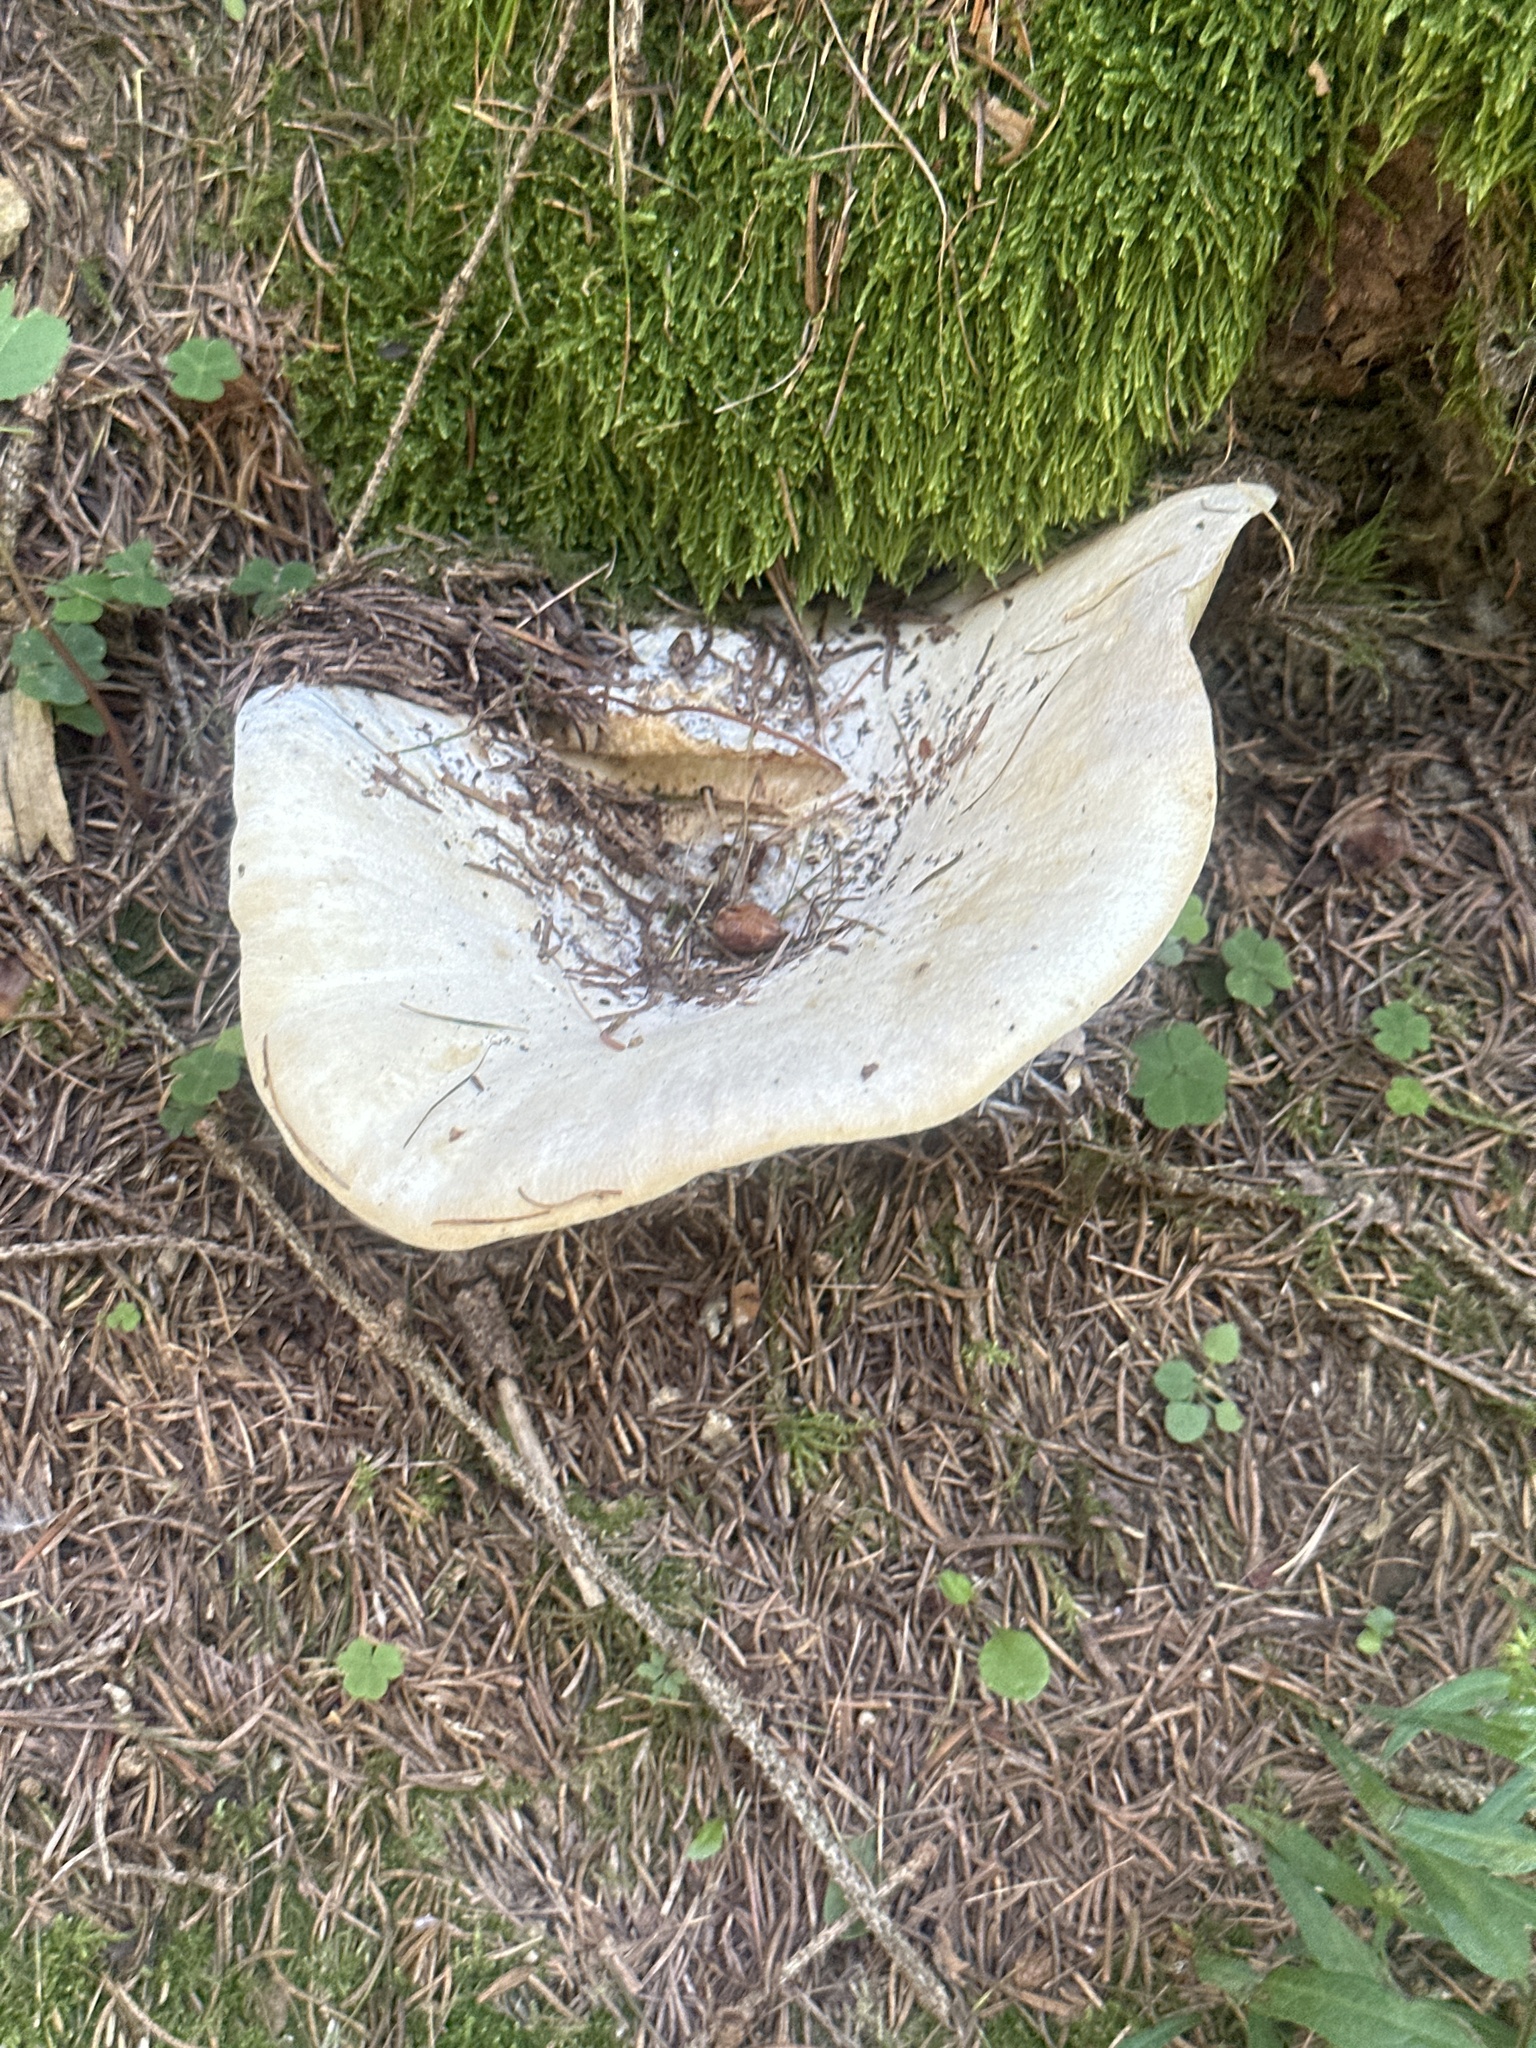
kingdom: Fungi
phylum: Basidiomycota
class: Agaricomycetes
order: Russulales
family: Russulaceae
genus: Lactifluus
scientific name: Lactifluus vellereus
